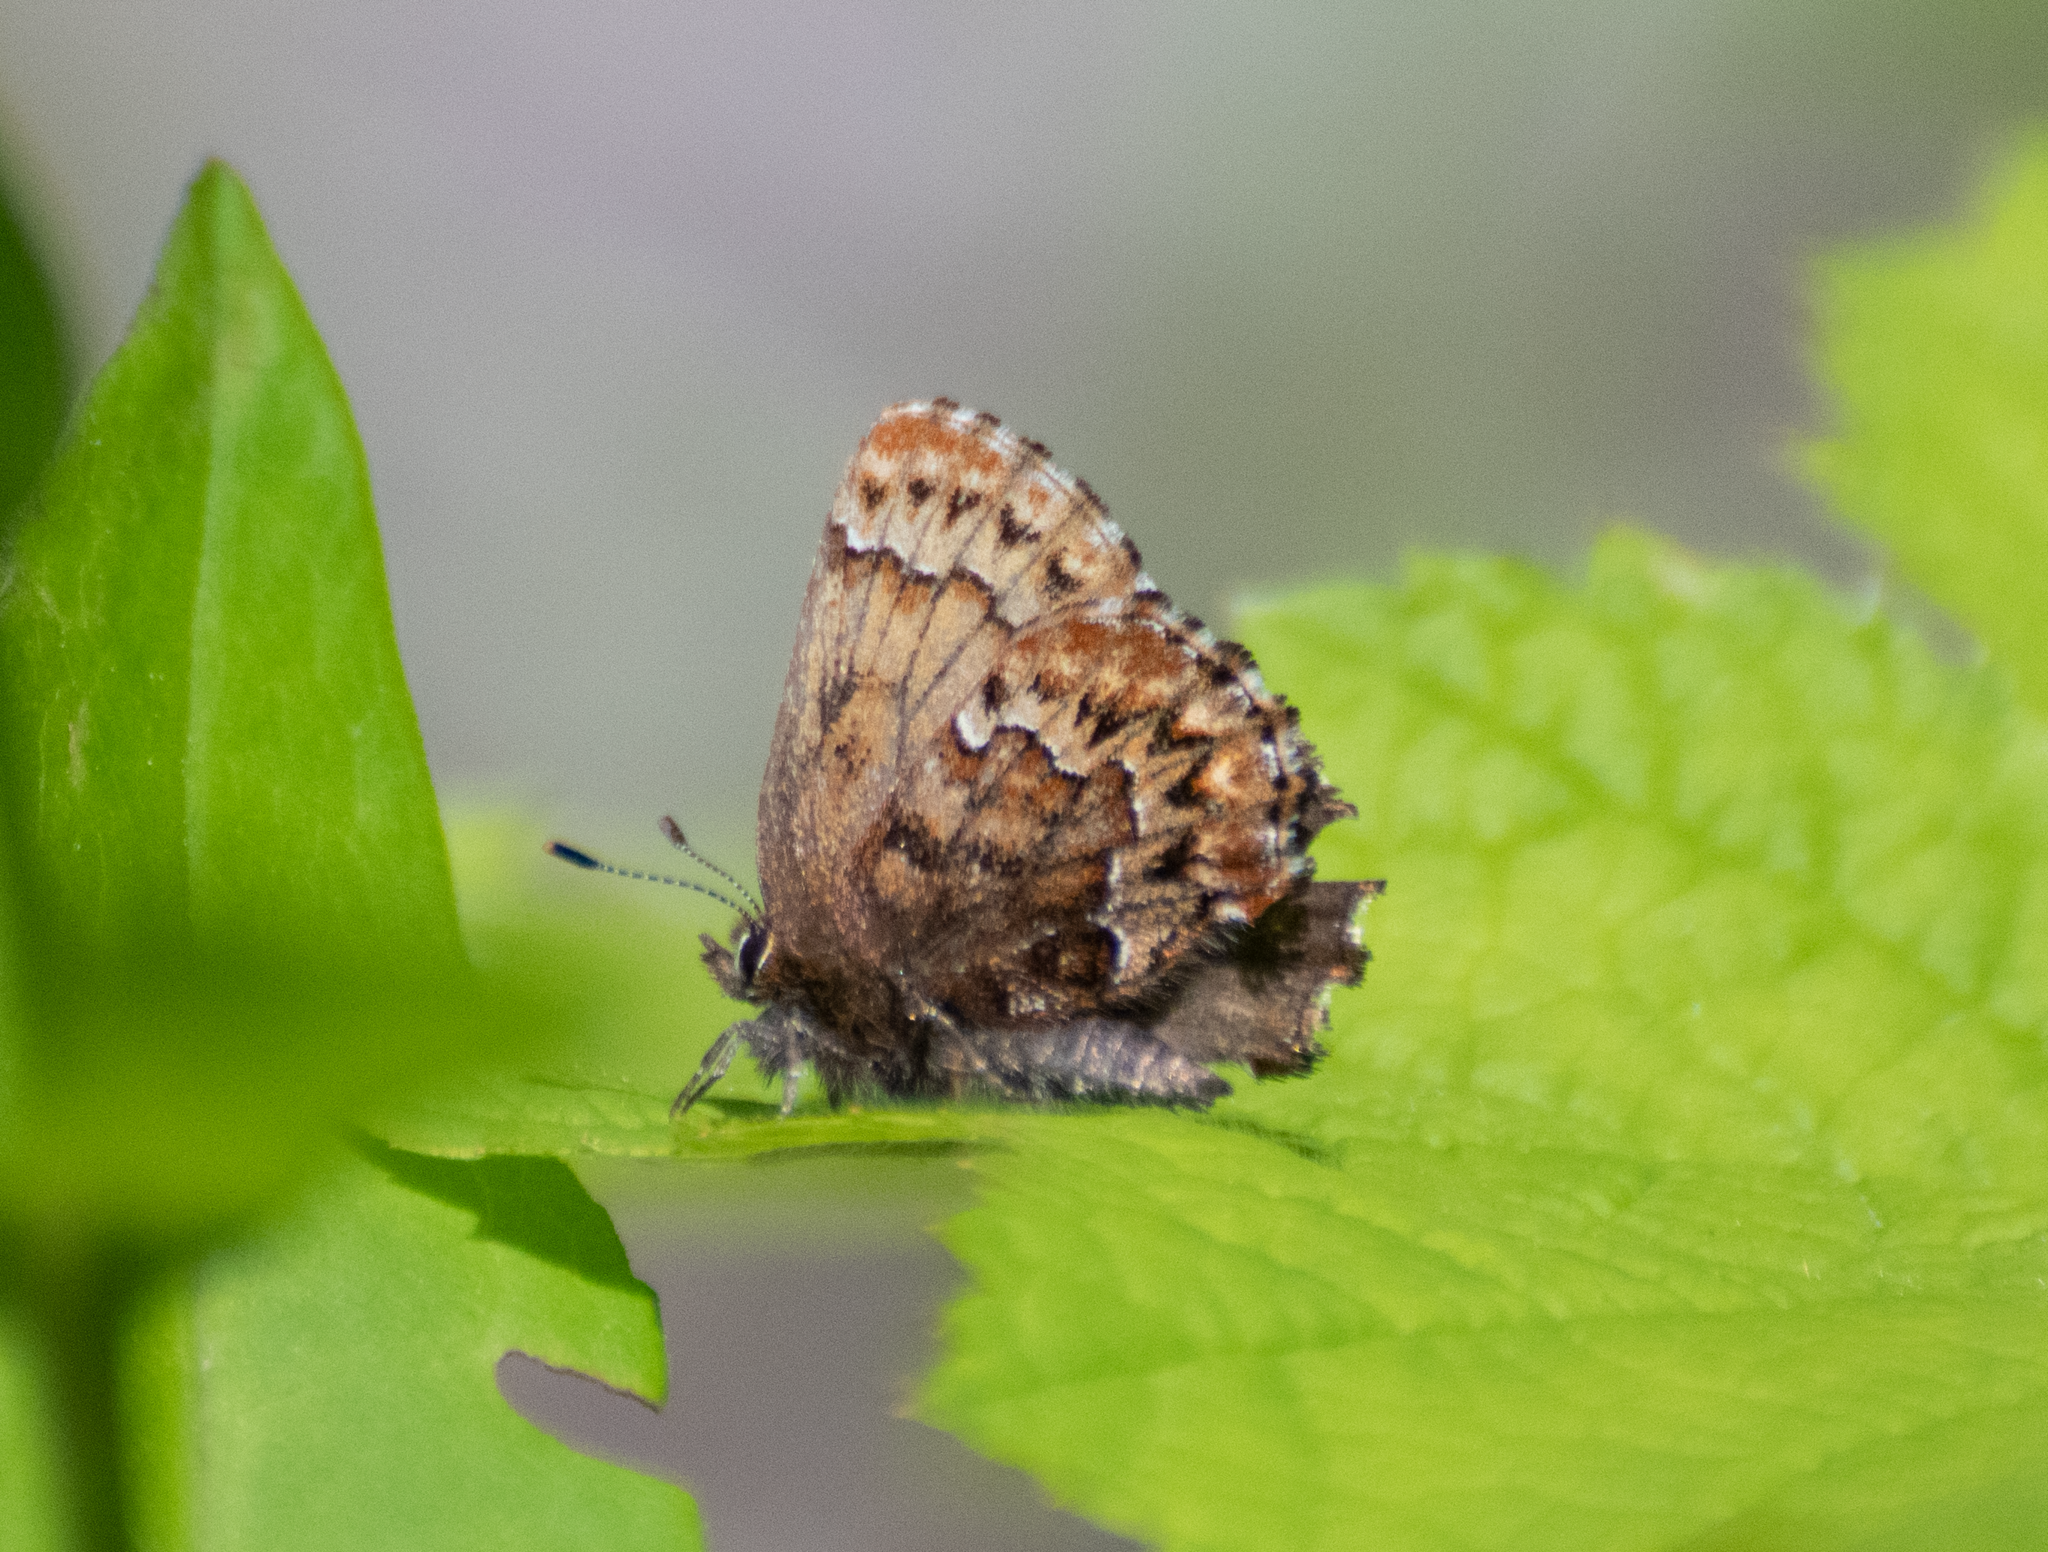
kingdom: Animalia
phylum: Arthropoda
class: Insecta
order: Lepidoptera
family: Lycaenidae
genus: Incisalia
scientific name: Incisalia eryphon
